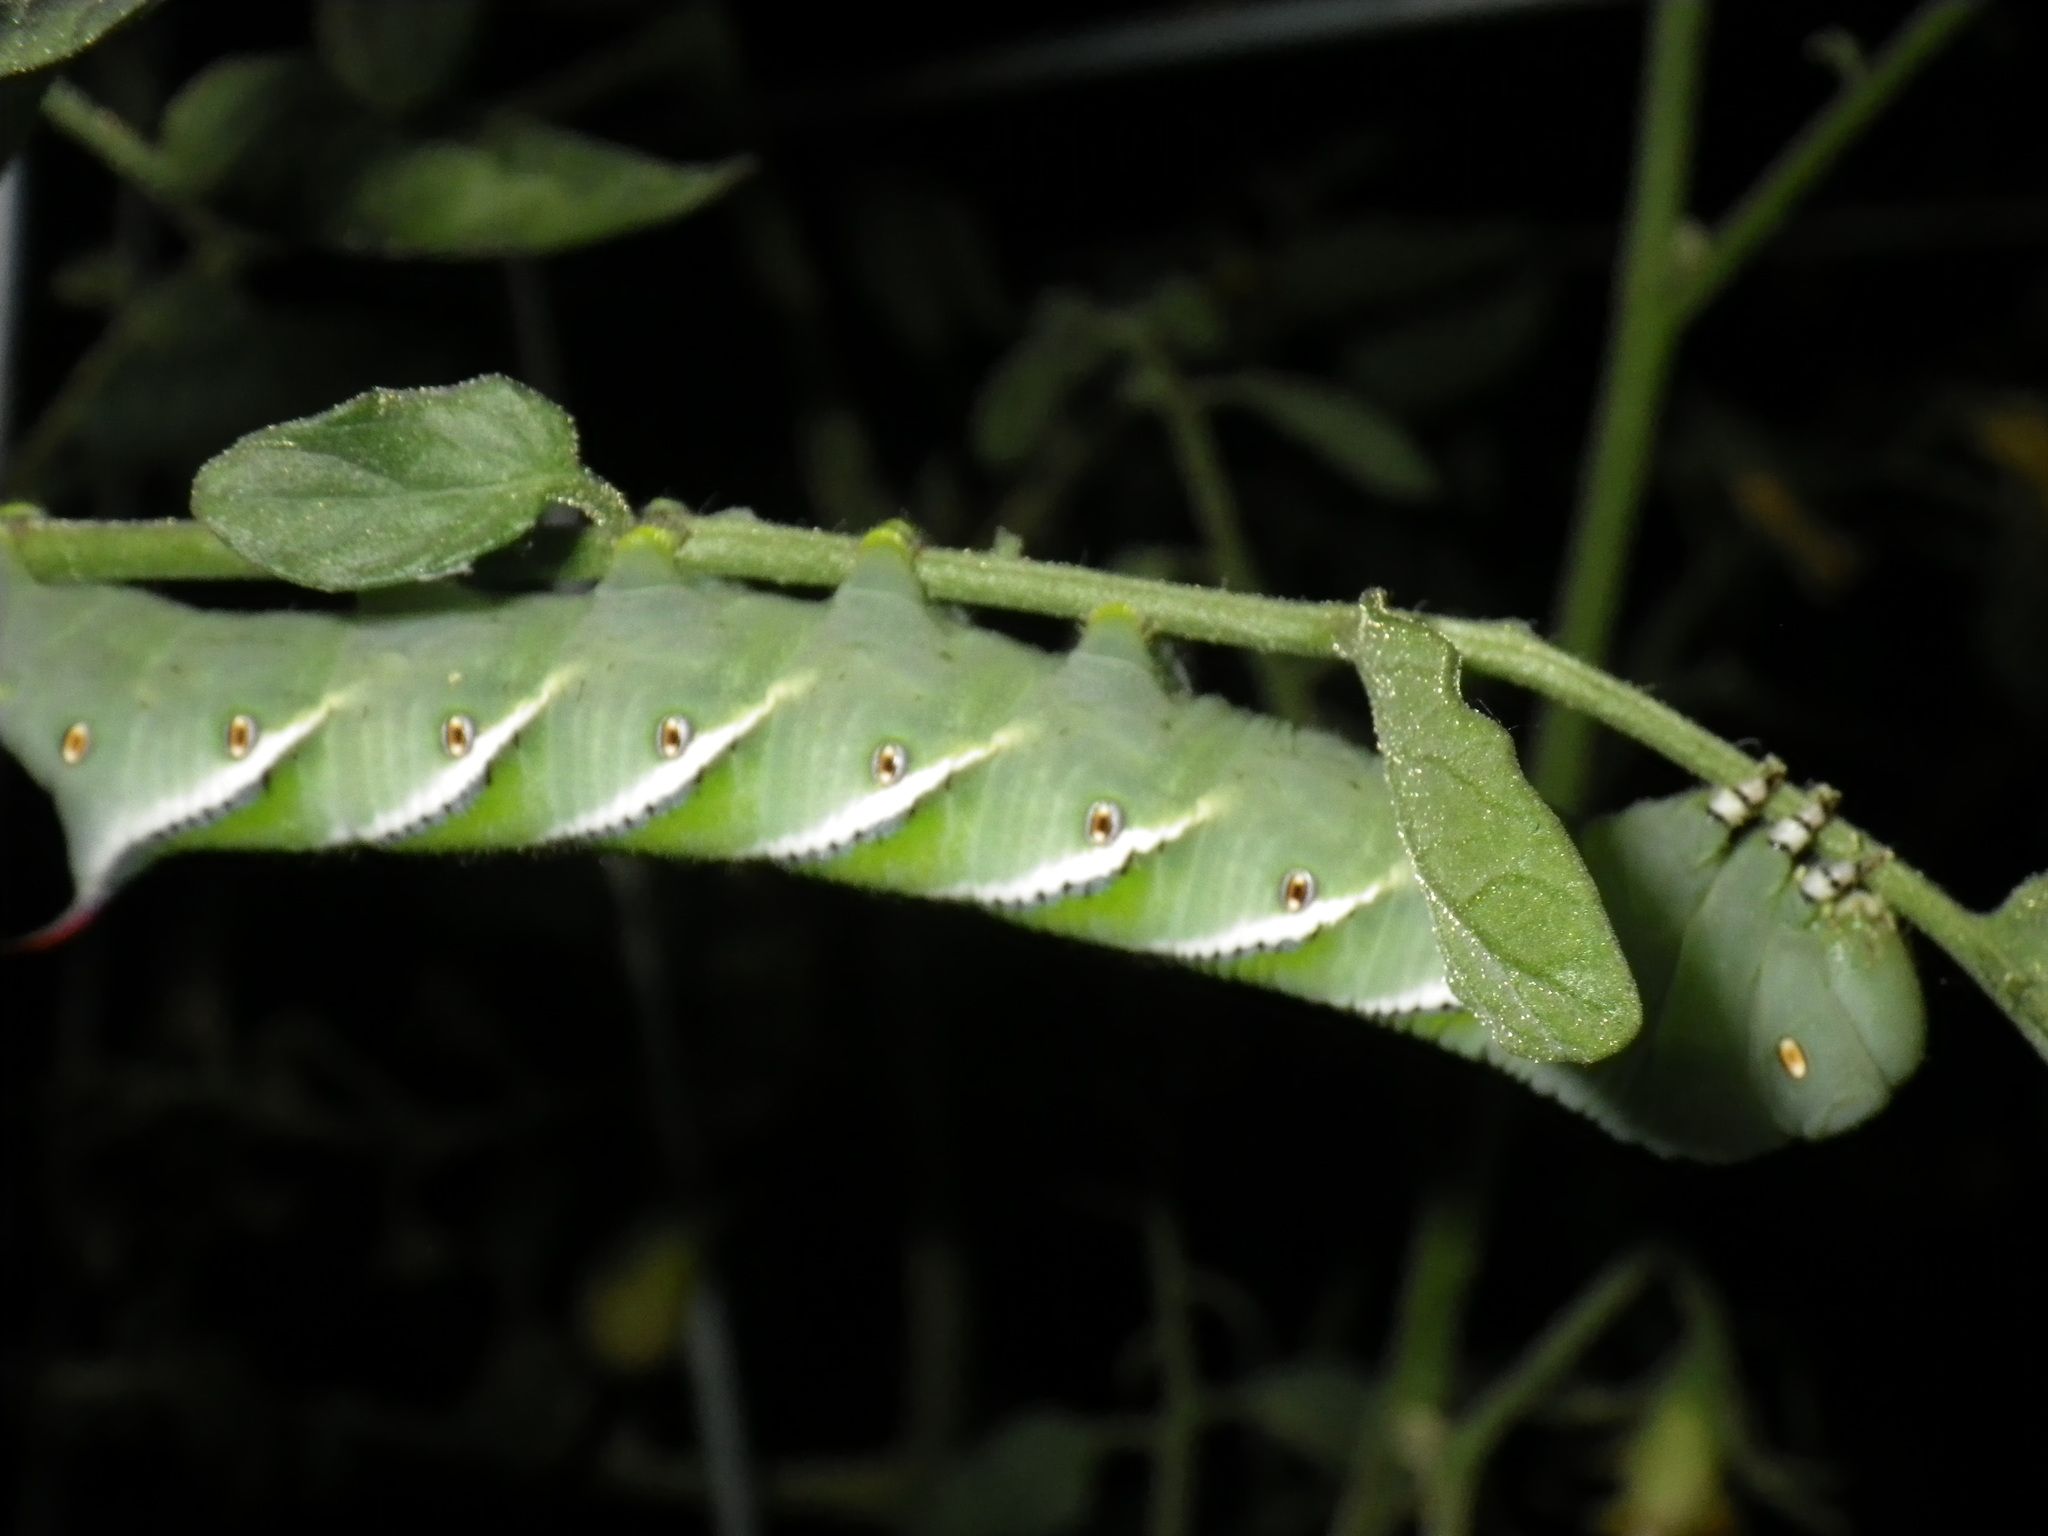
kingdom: Animalia
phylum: Arthropoda
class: Insecta
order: Lepidoptera
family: Sphingidae
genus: Manduca
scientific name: Manduca sexta
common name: Carolina sphinx
